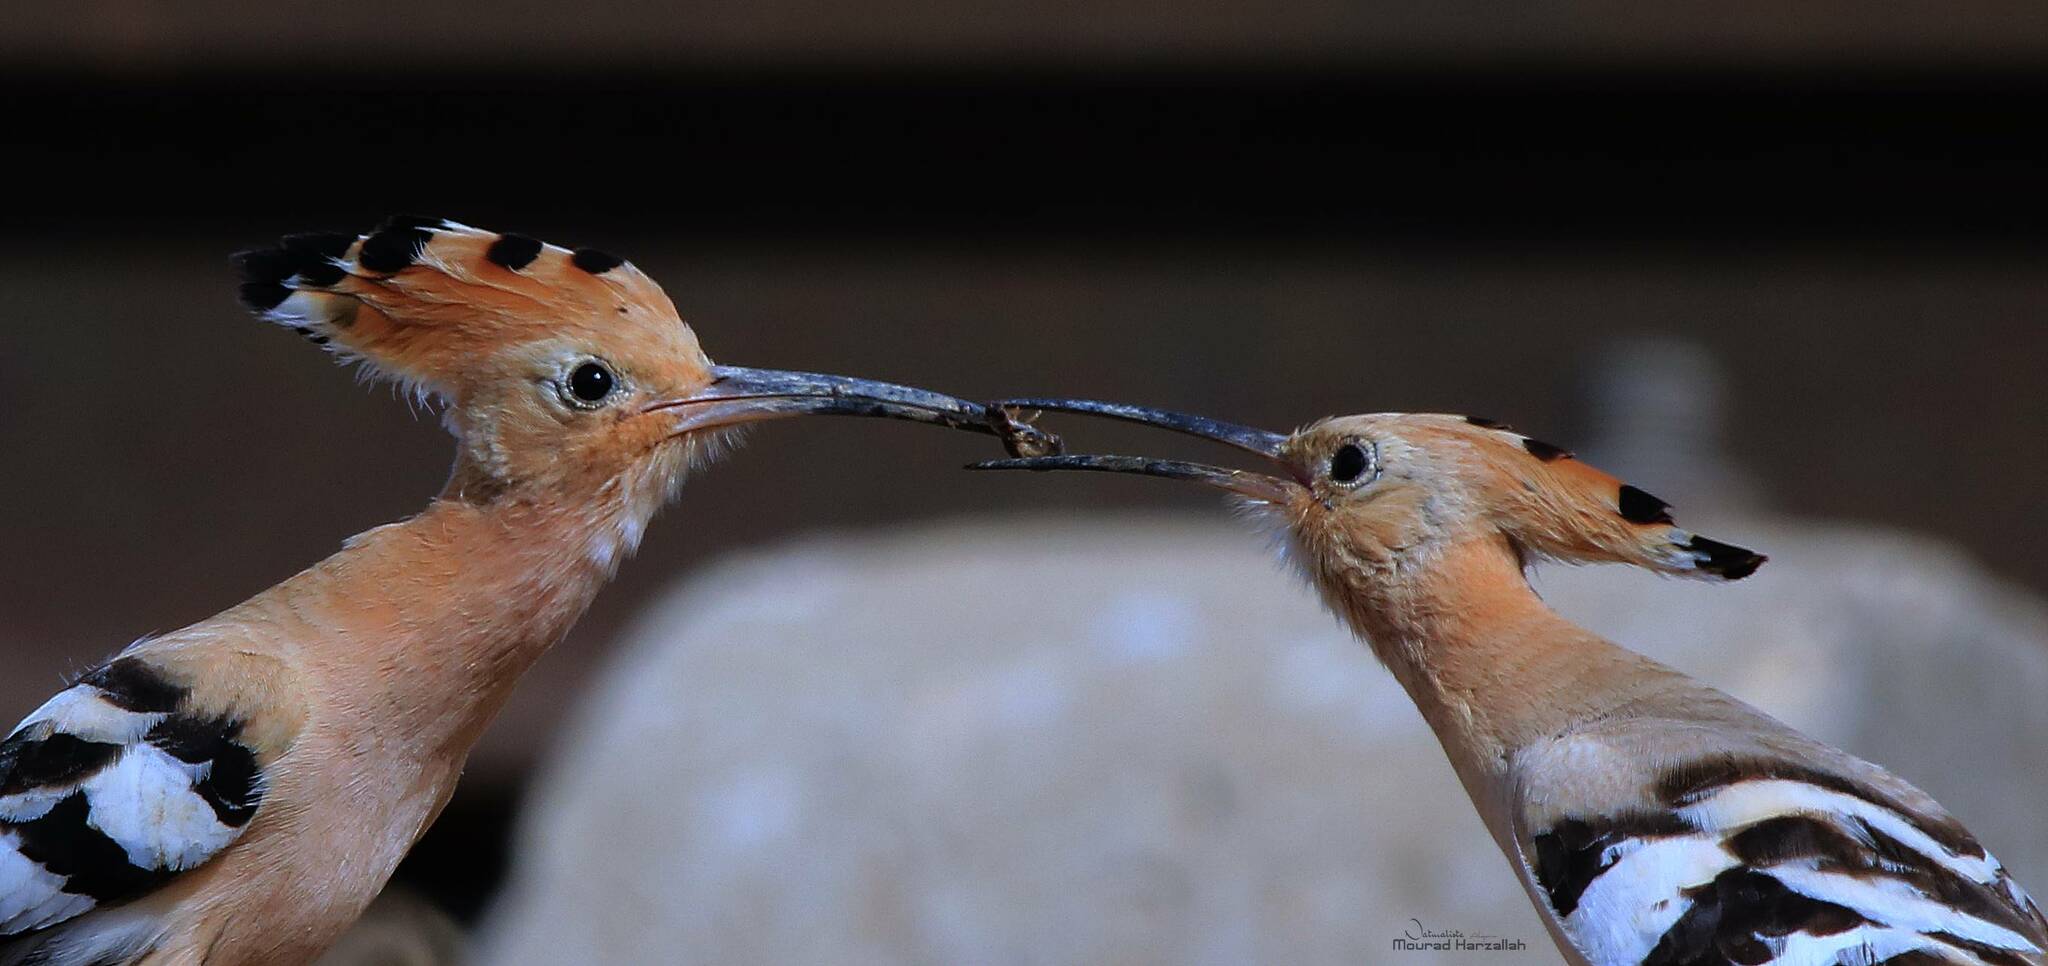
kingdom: Animalia
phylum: Chordata
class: Aves
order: Bucerotiformes
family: Upupidae
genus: Upupa
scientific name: Upupa epops
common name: Eurasian hoopoe
